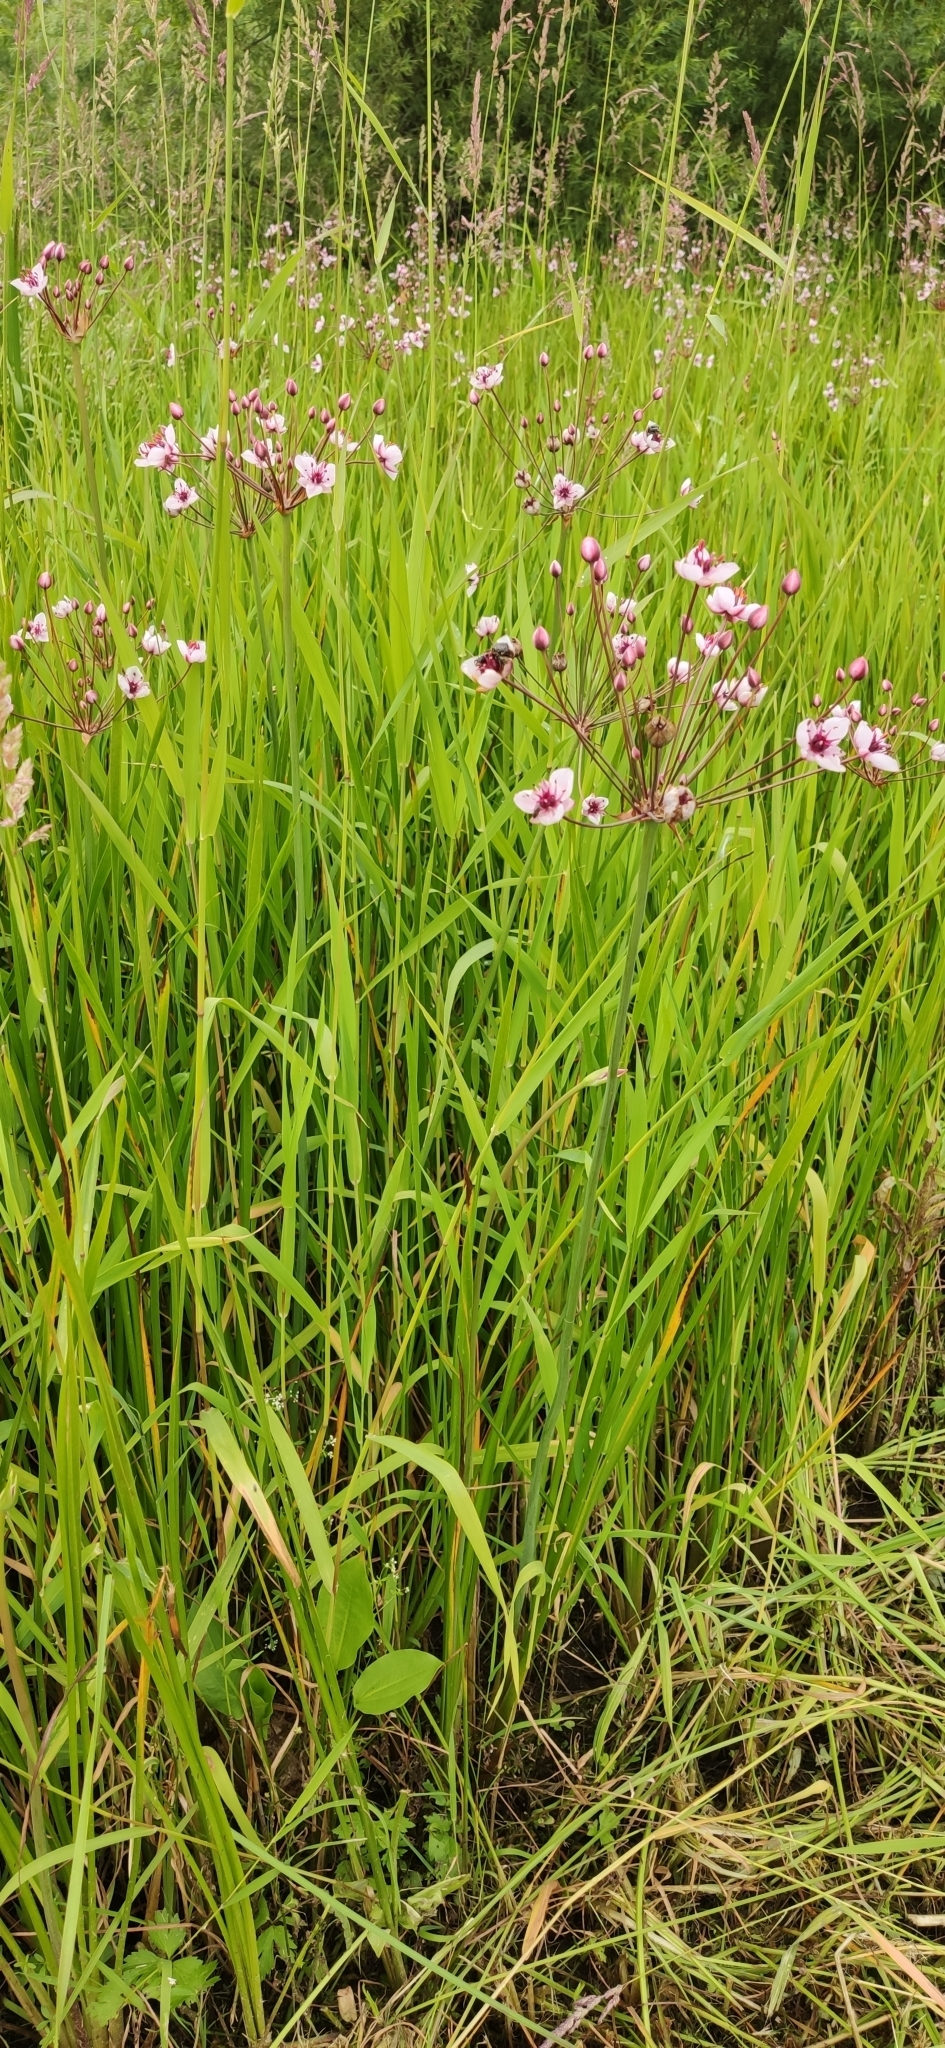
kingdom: Plantae
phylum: Tracheophyta
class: Liliopsida
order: Alismatales
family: Butomaceae
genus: Butomus
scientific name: Butomus umbellatus
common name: Flowering-rush
